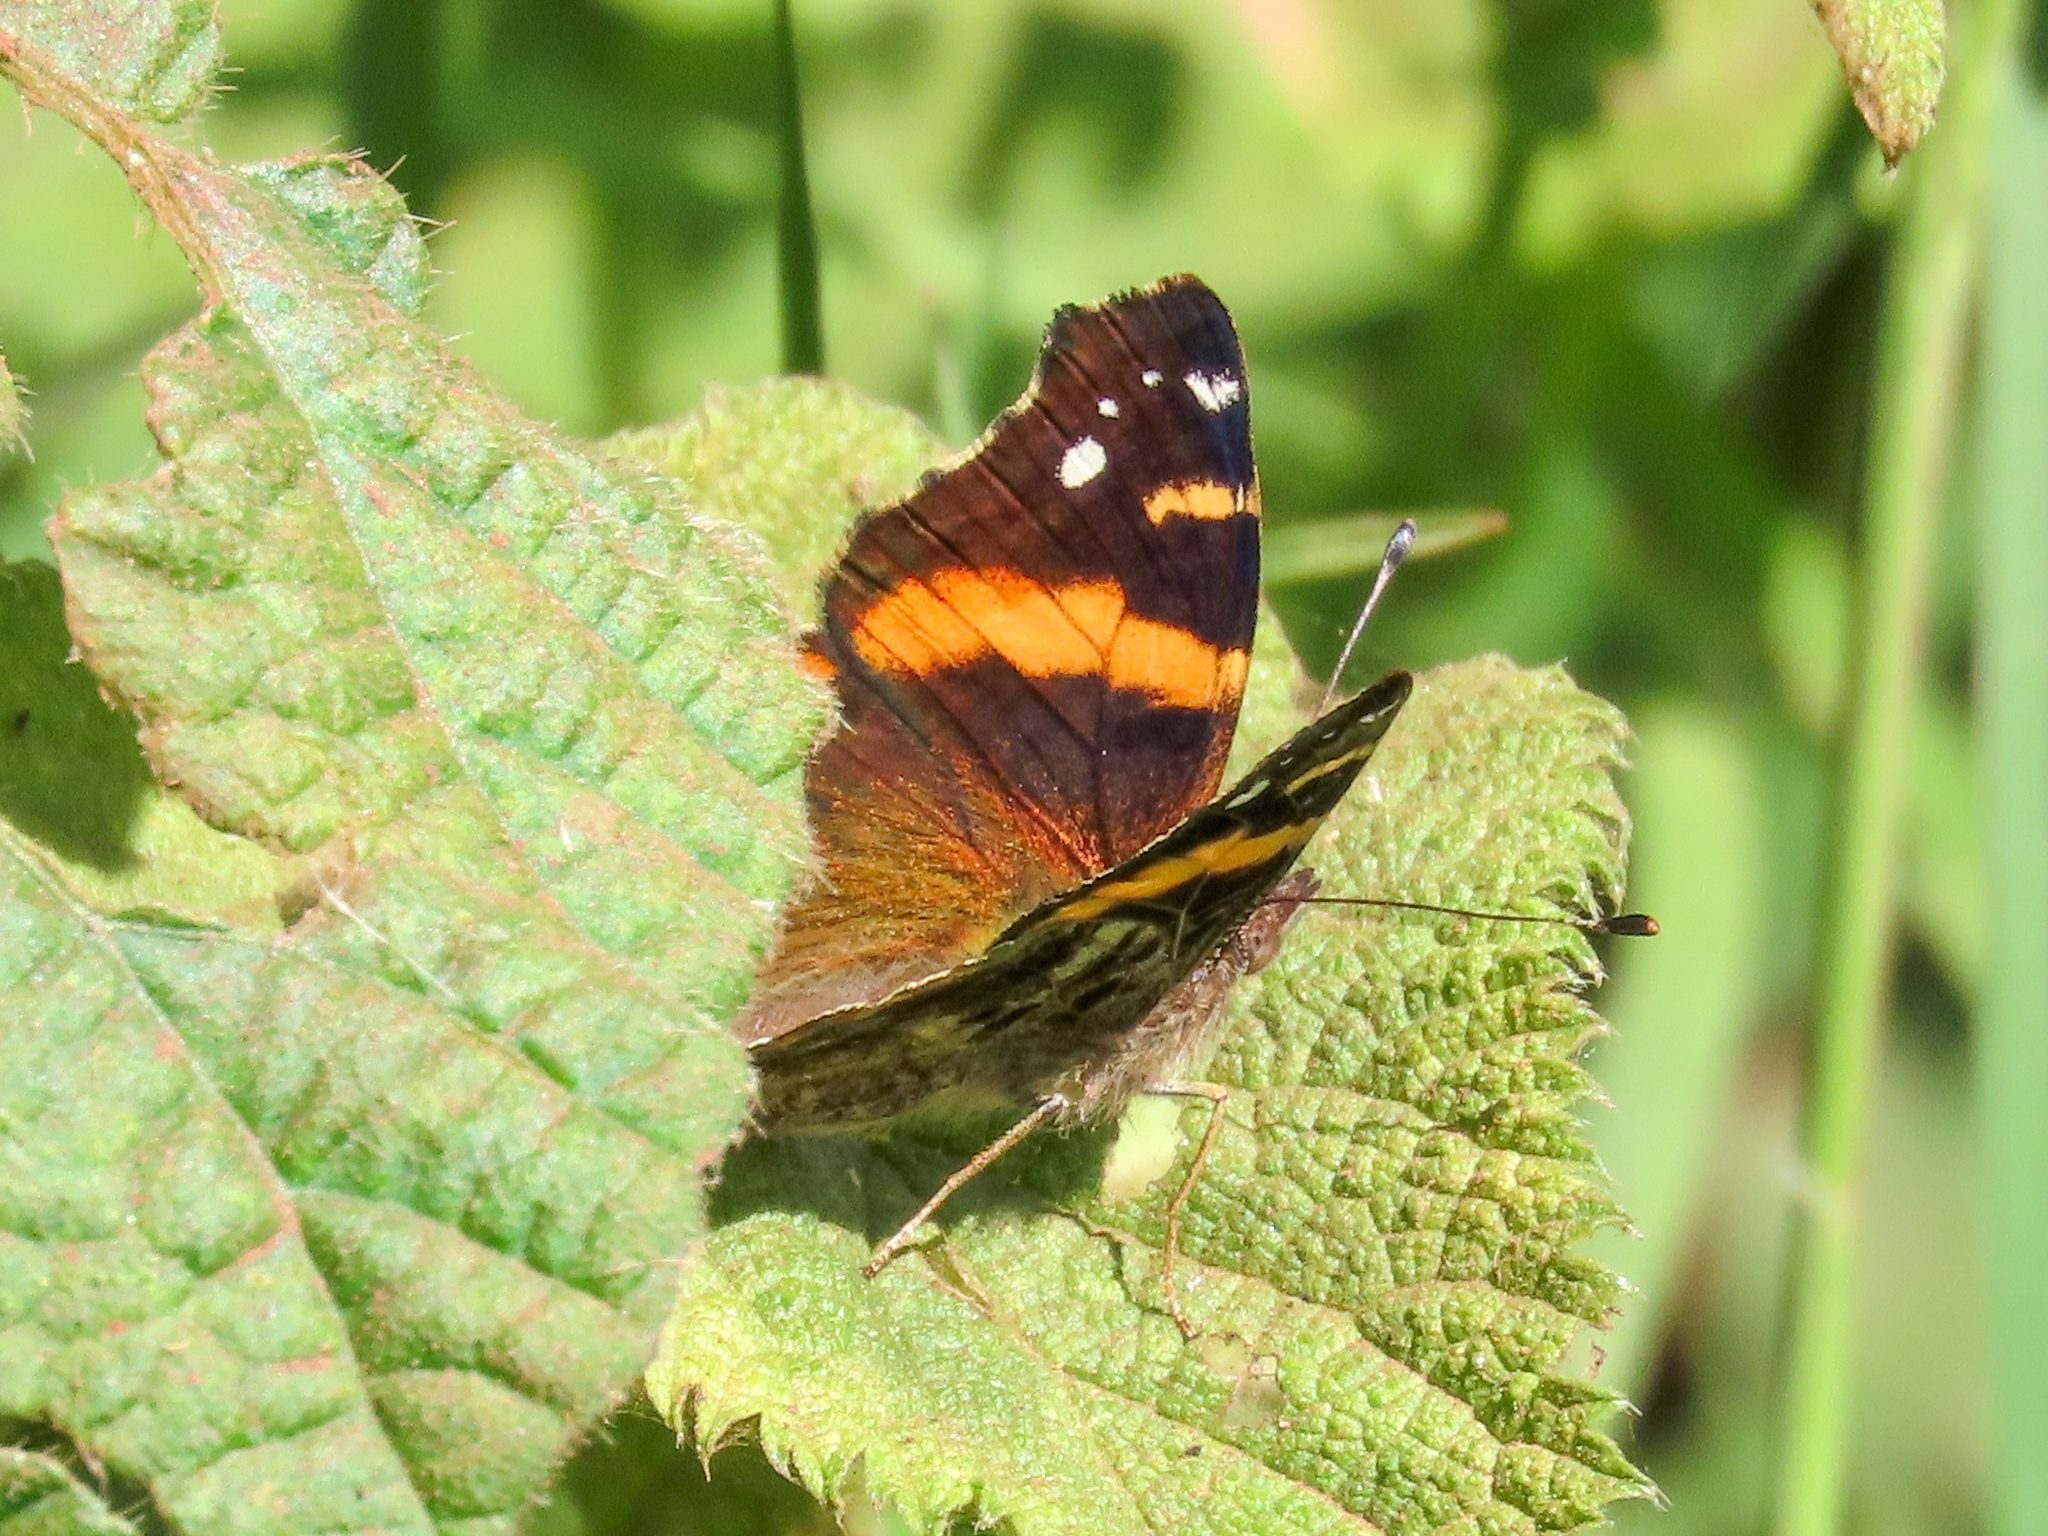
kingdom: Animalia
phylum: Arthropoda
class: Insecta
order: Lepidoptera
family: Nymphalidae
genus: Vanessa
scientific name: Vanessa abyssinica
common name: Abyssinian admiral
